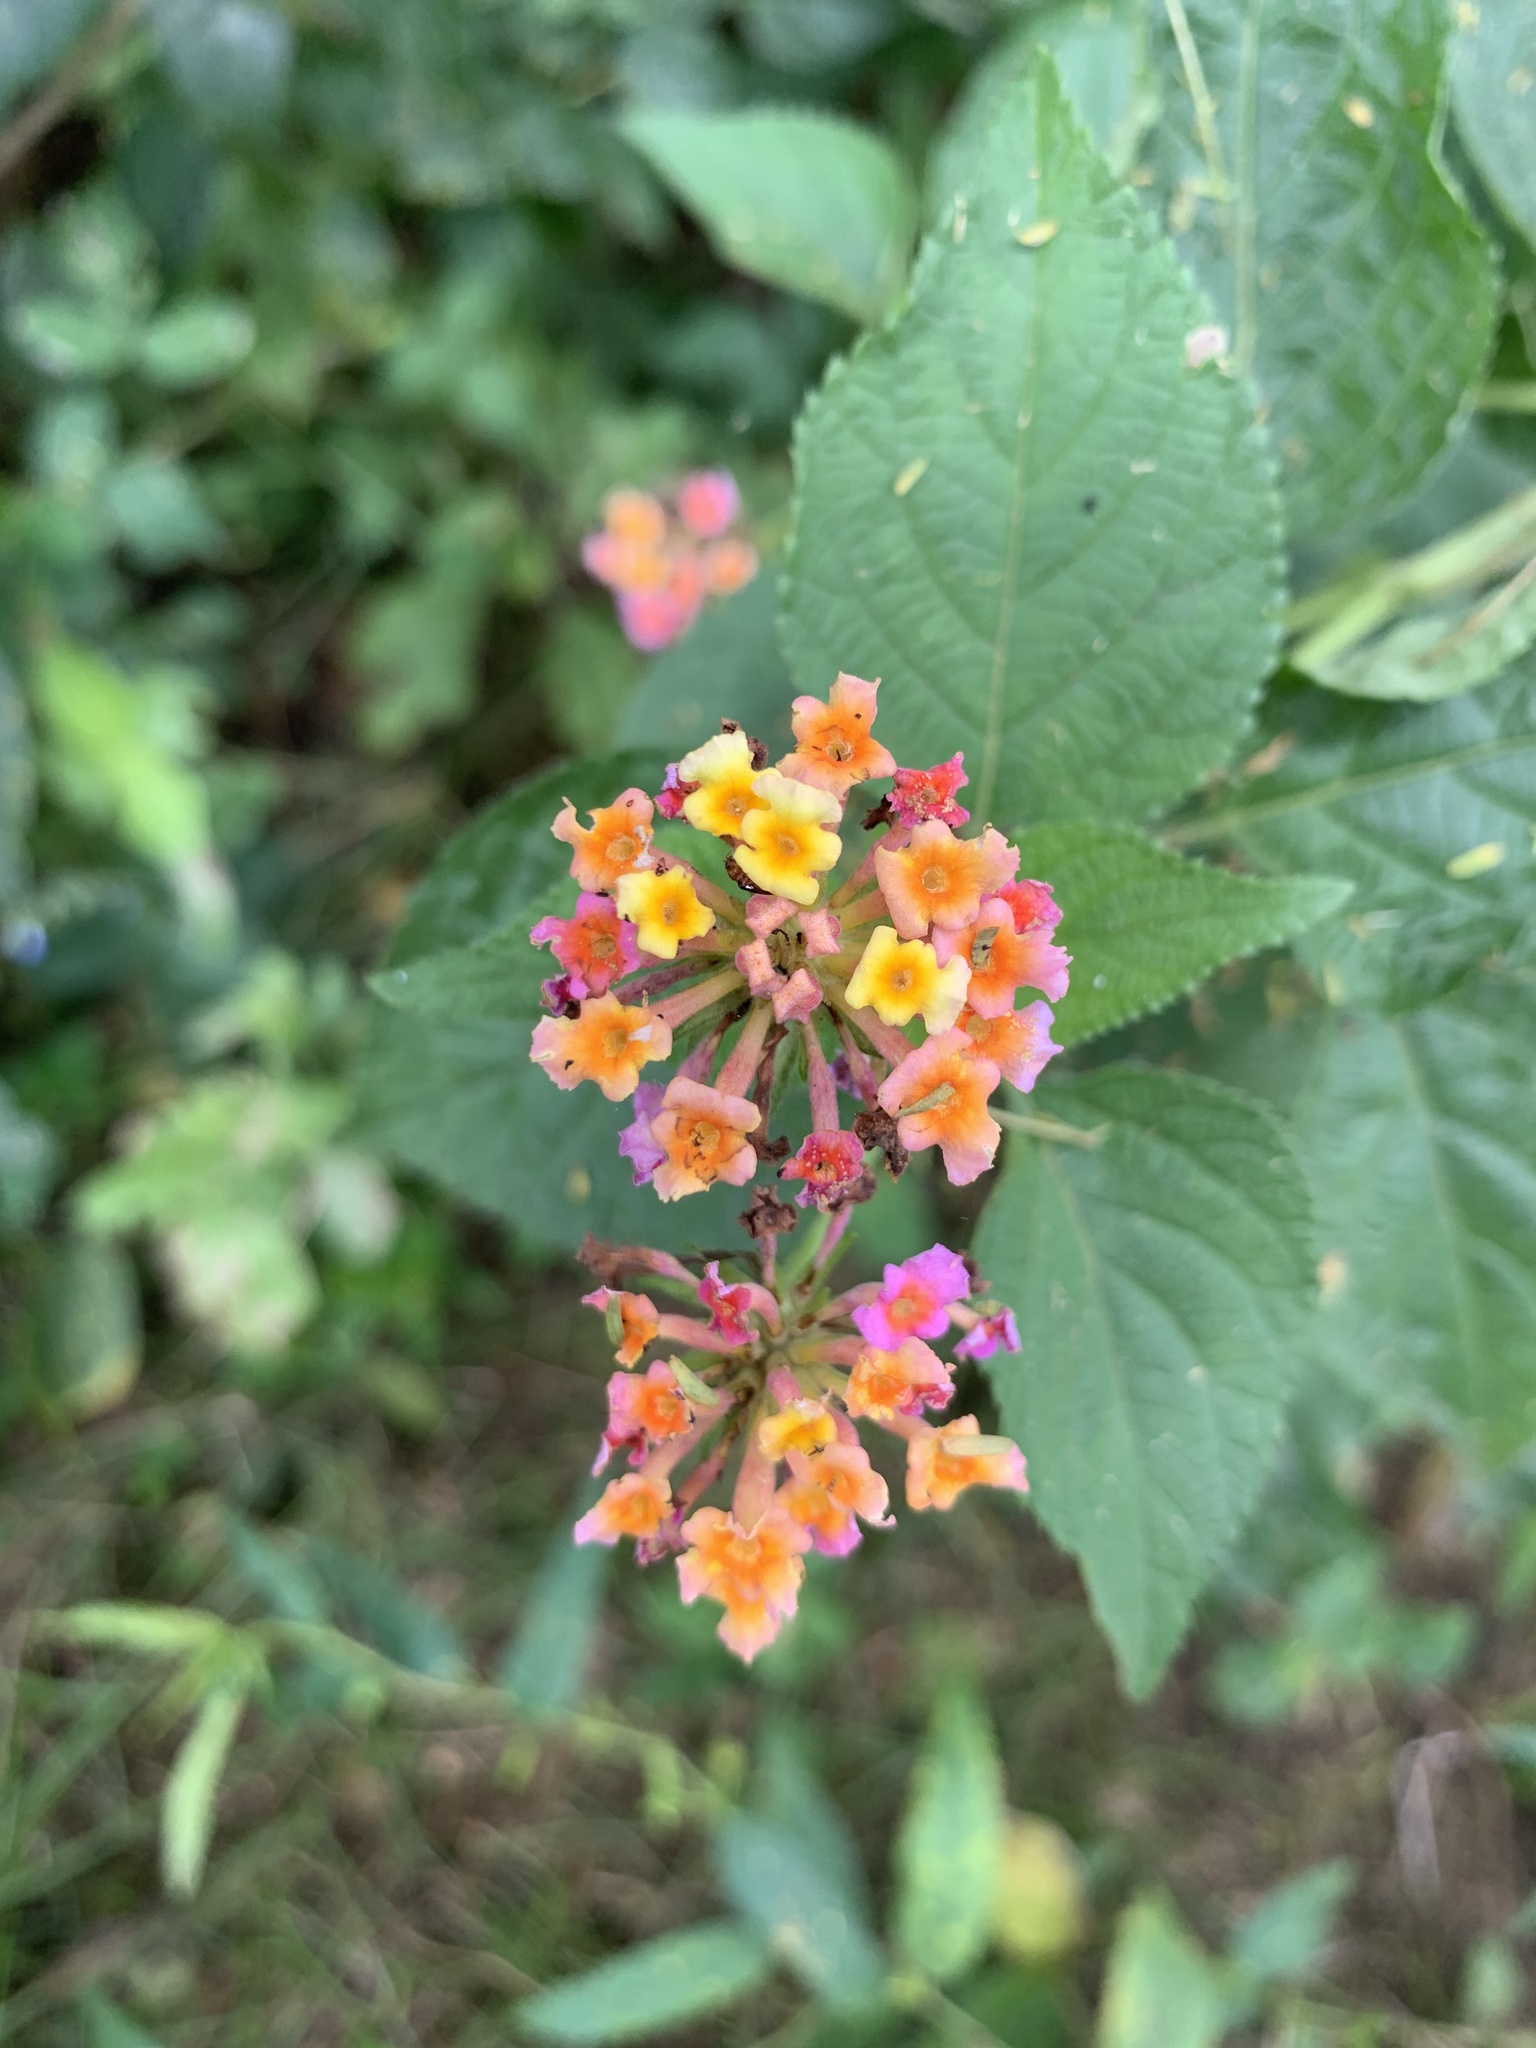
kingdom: Plantae
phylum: Tracheophyta
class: Magnoliopsida
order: Lamiales
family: Verbenaceae
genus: Lantana
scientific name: Lantana camara
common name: Lantana
